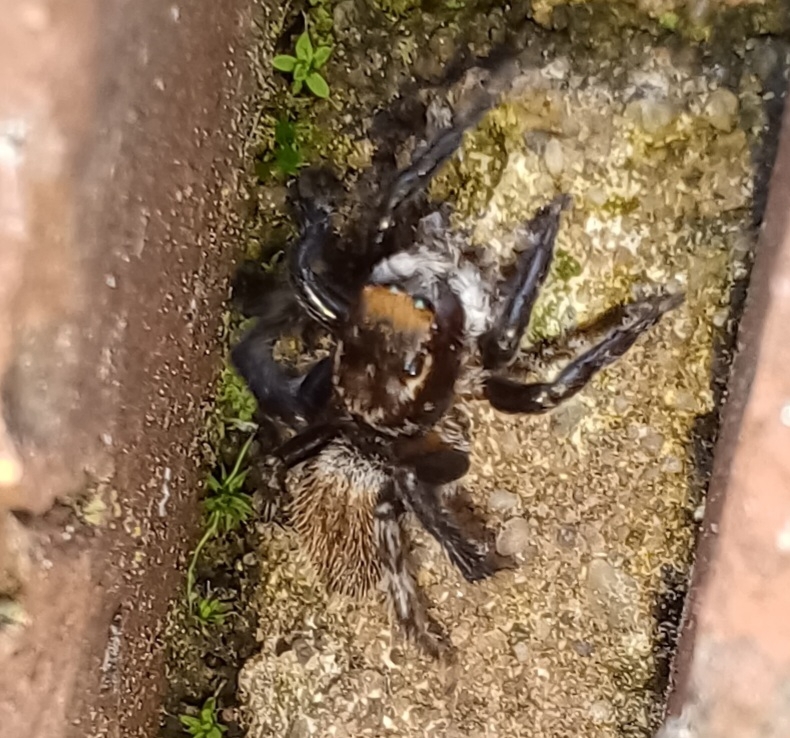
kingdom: Animalia
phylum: Arthropoda
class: Arachnida
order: Araneae
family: Salticidae
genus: Maratus
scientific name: Maratus griseus
